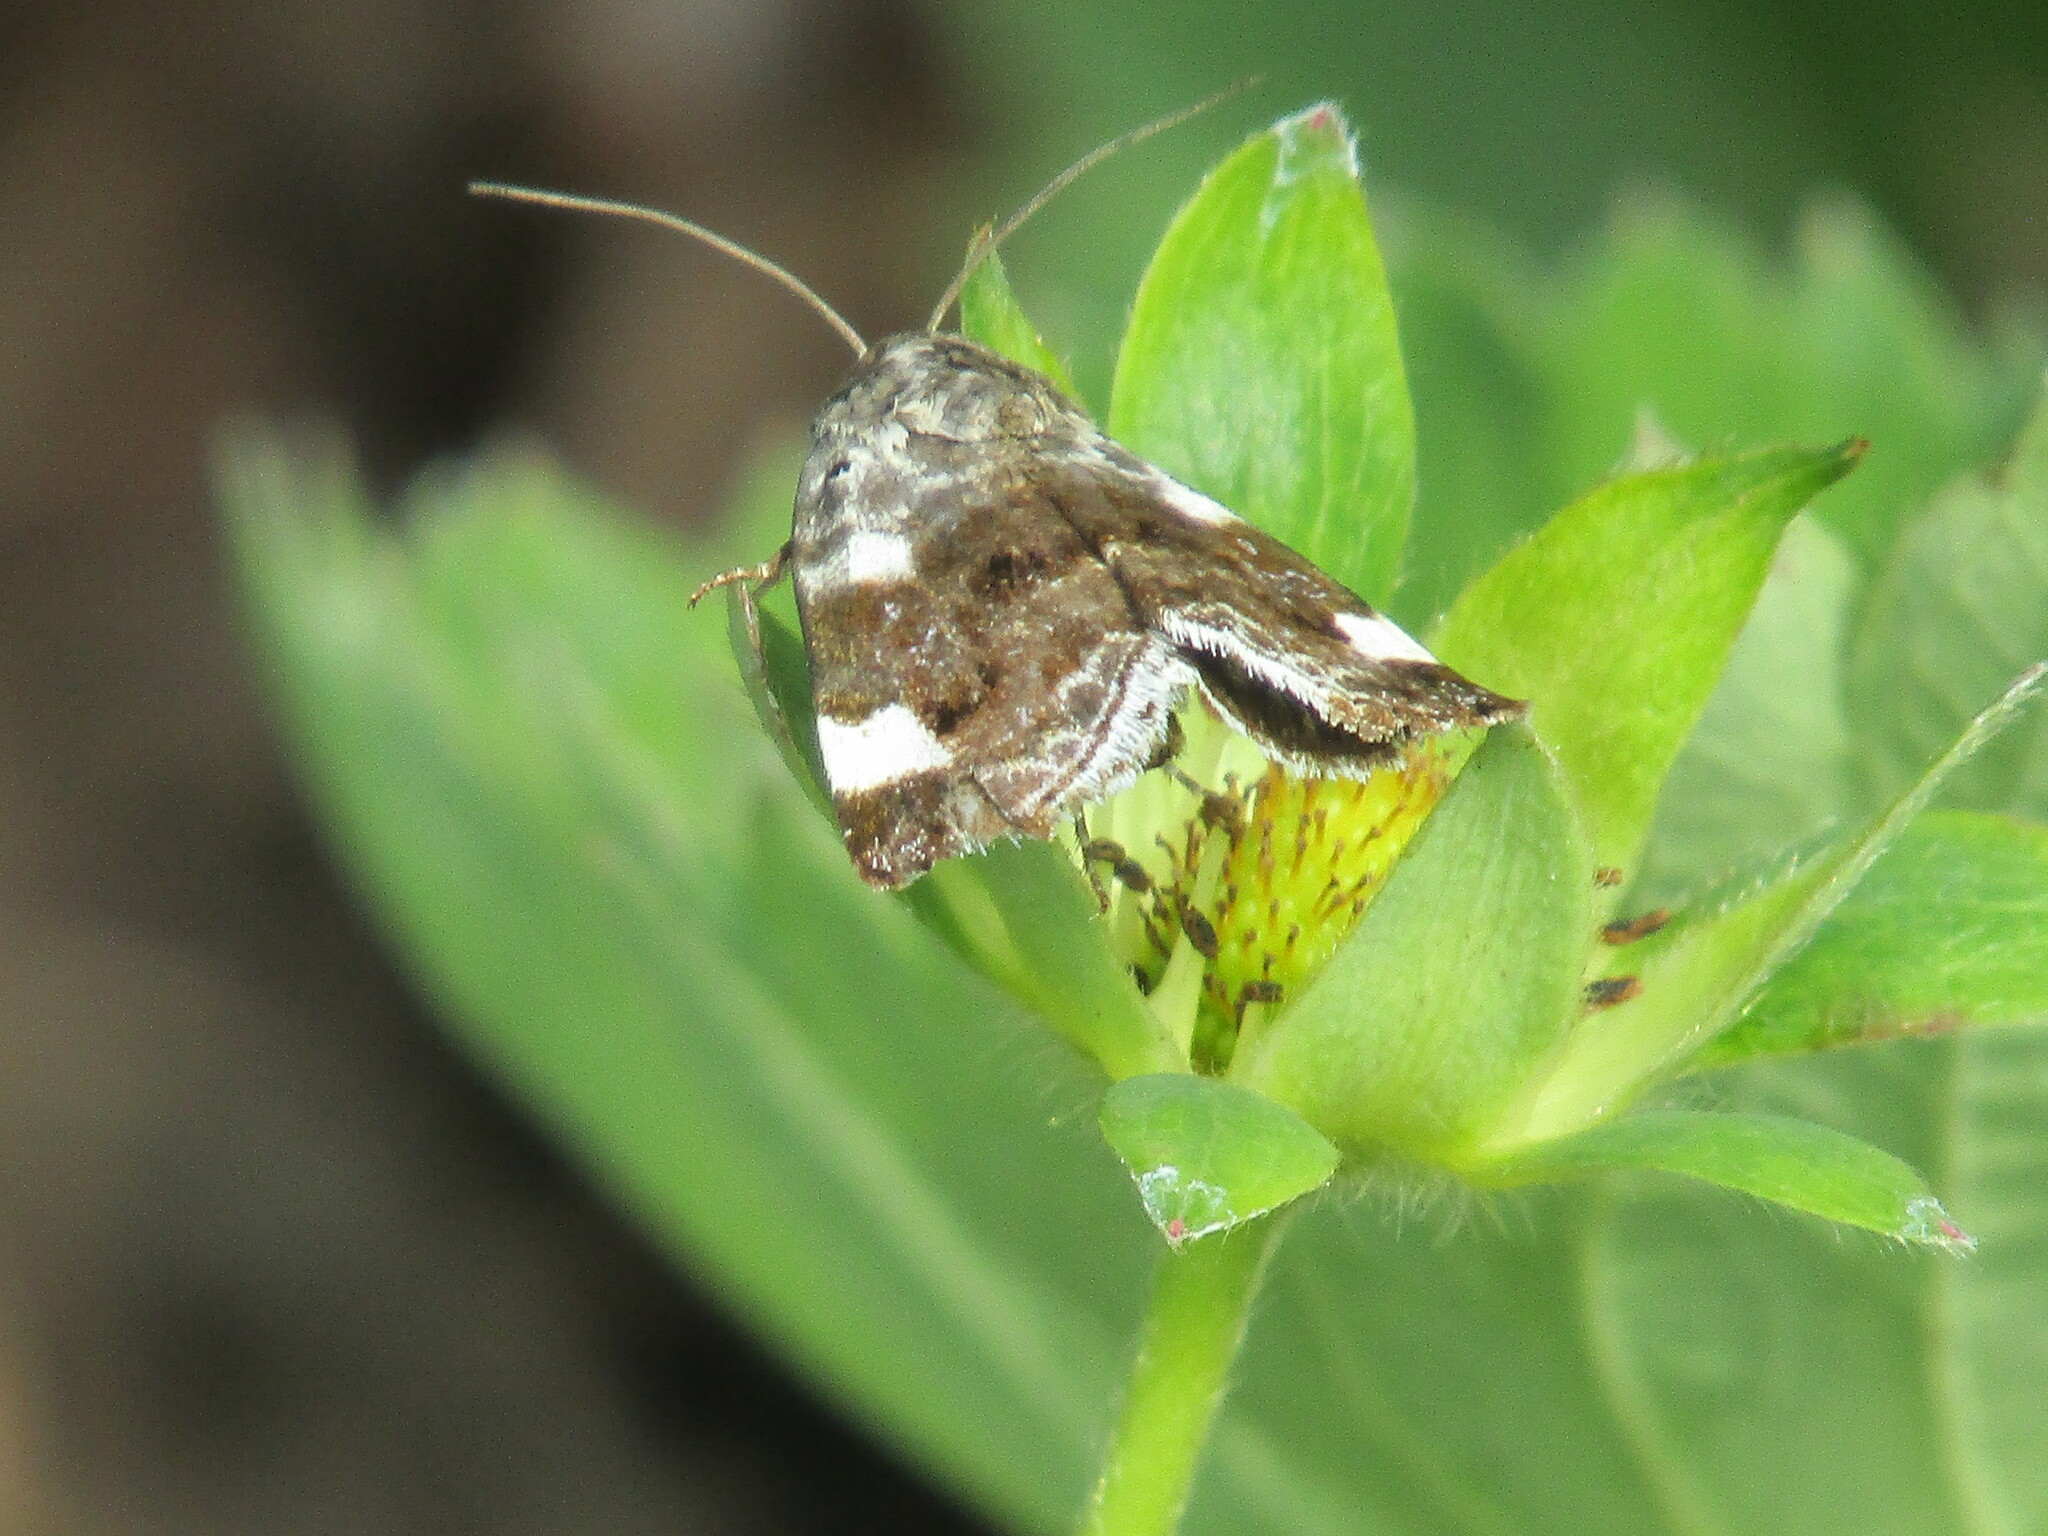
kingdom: Animalia
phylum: Arthropoda
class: Insecta
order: Lepidoptera
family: Noctuidae
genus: Acontia
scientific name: Acontia lucida
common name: Pale shoulder
